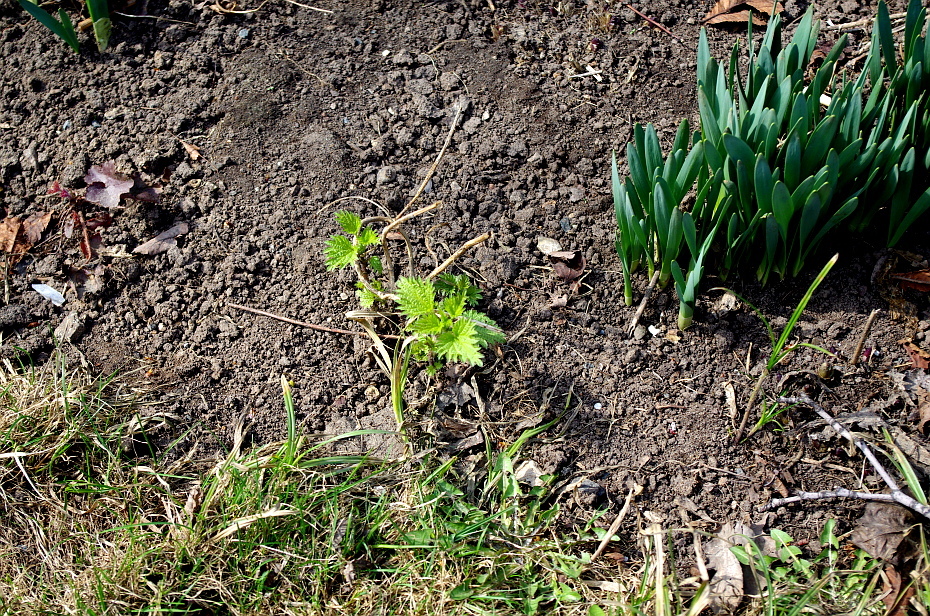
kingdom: Plantae
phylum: Tracheophyta
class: Magnoliopsida
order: Rosales
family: Urticaceae
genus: Urtica
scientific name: Urtica dioica
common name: Common nettle
